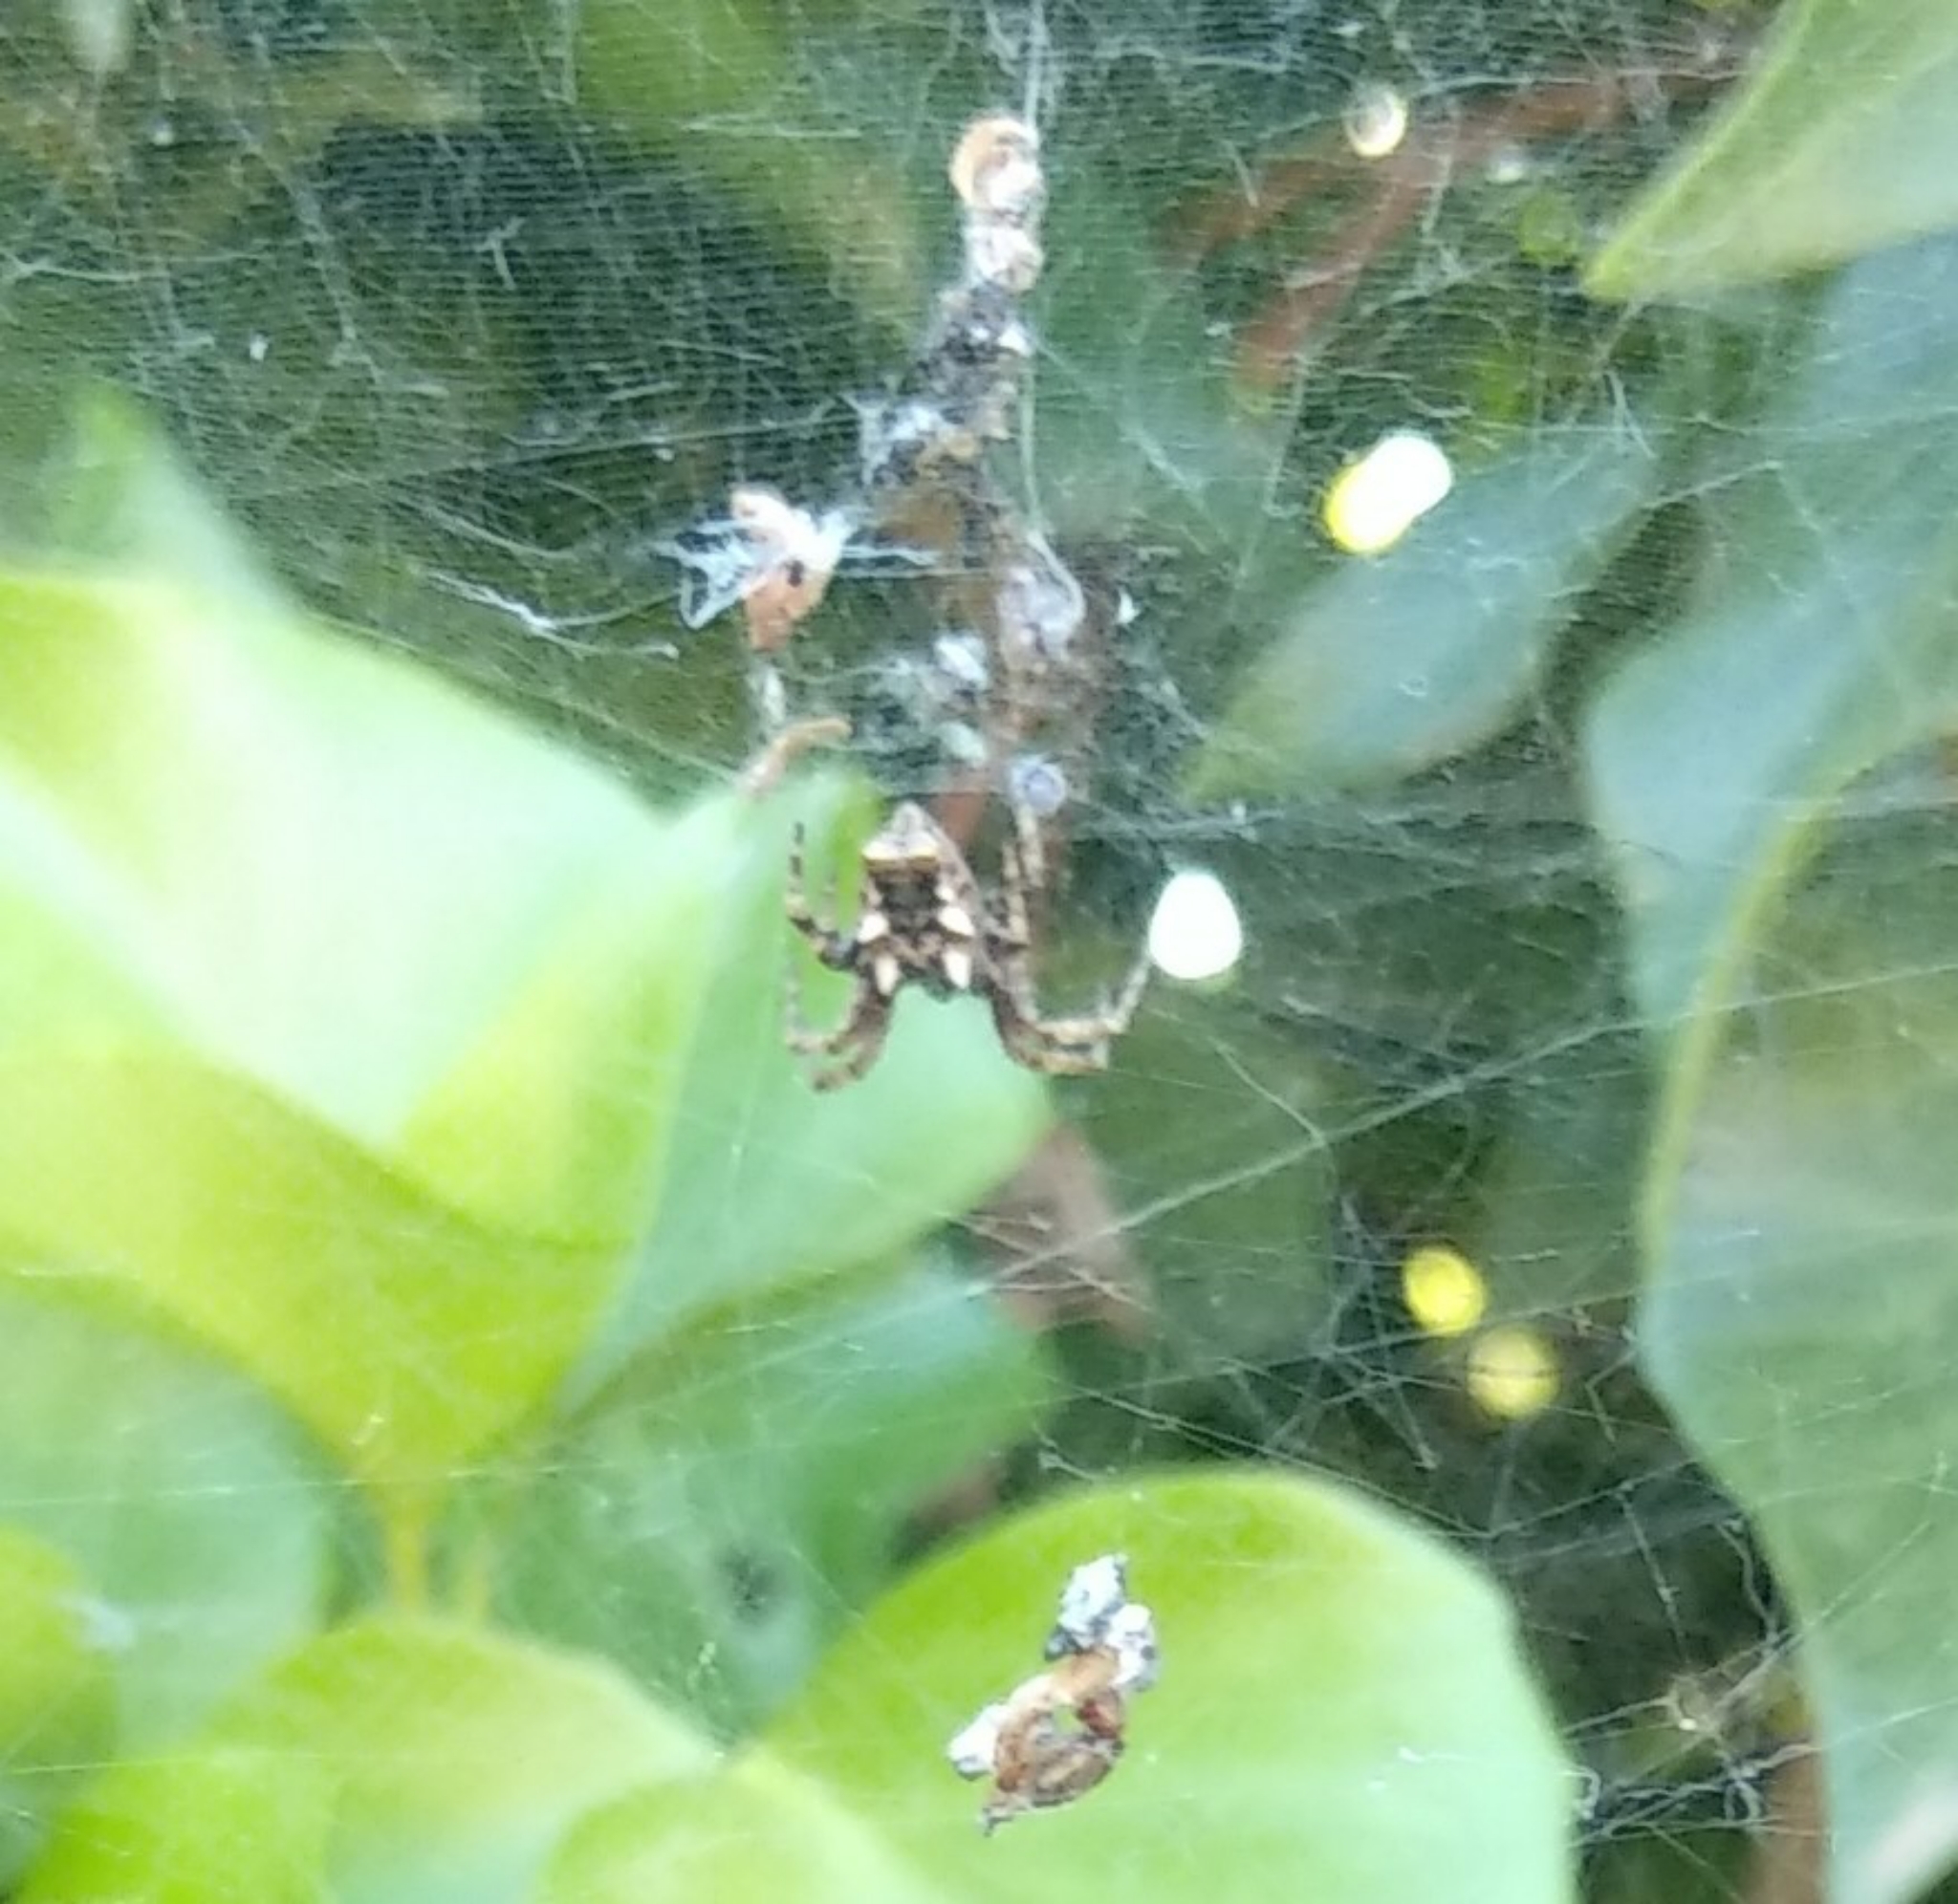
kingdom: Animalia
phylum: Arthropoda
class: Arachnida
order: Araneae
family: Araneidae
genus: Cyrtophora
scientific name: Cyrtophora citricola
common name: Orb weavers
